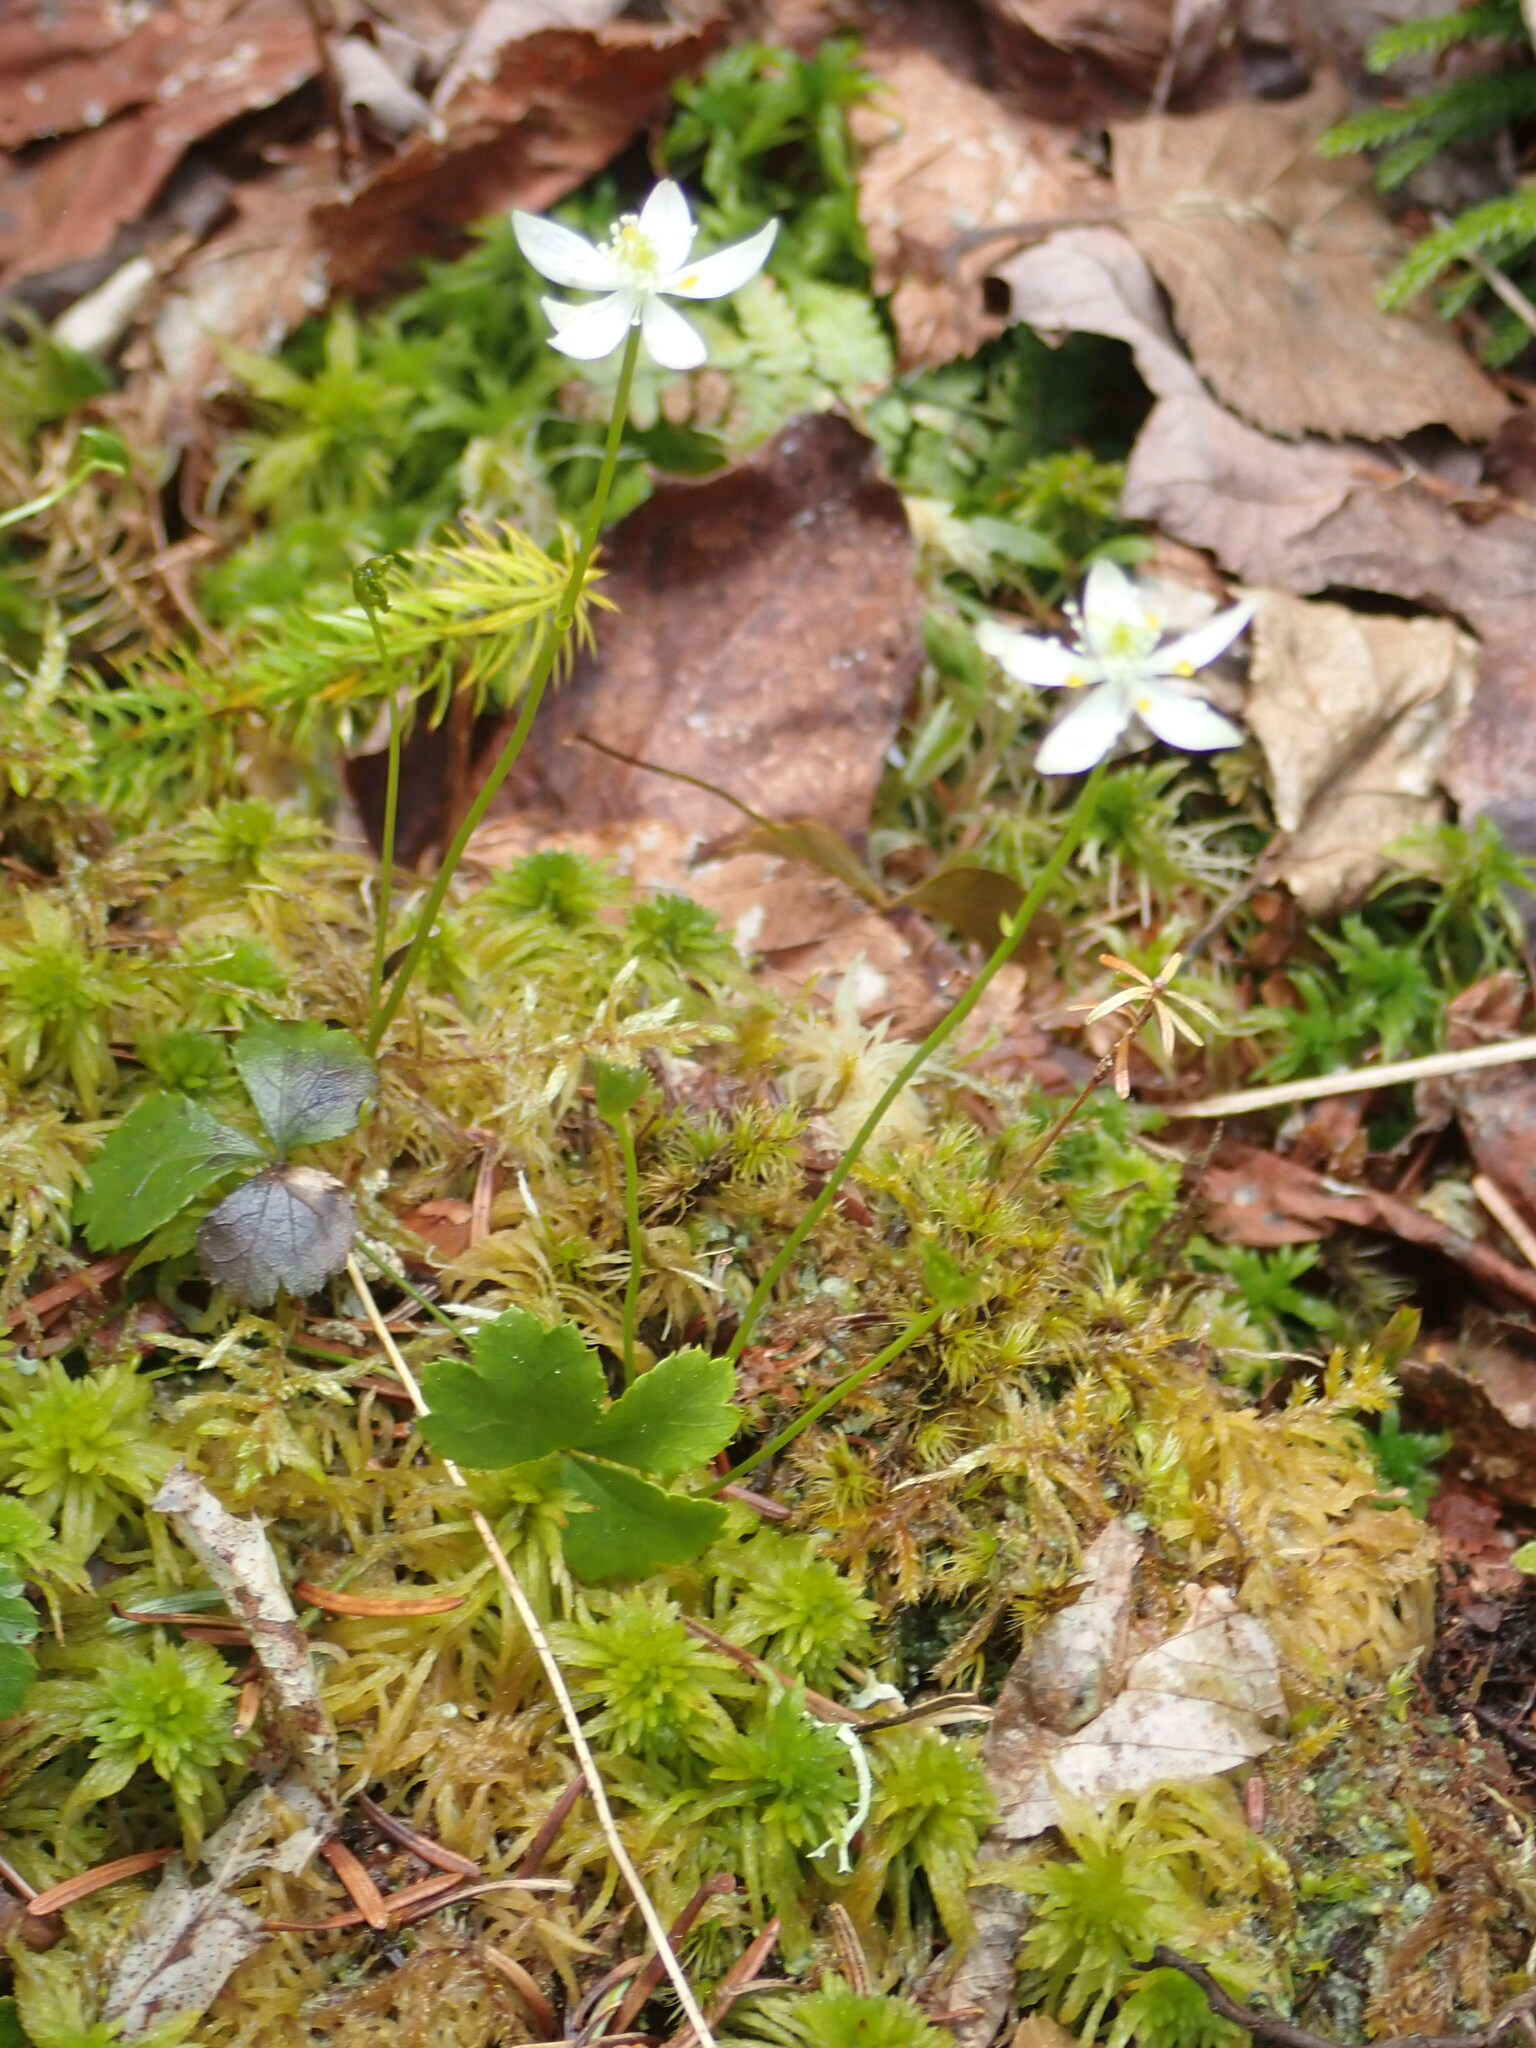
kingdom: Plantae
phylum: Tracheophyta
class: Magnoliopsida
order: Ranunculales
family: Ranunculaceae
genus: Coptis
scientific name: Coptis trifolia
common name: Canker-root
